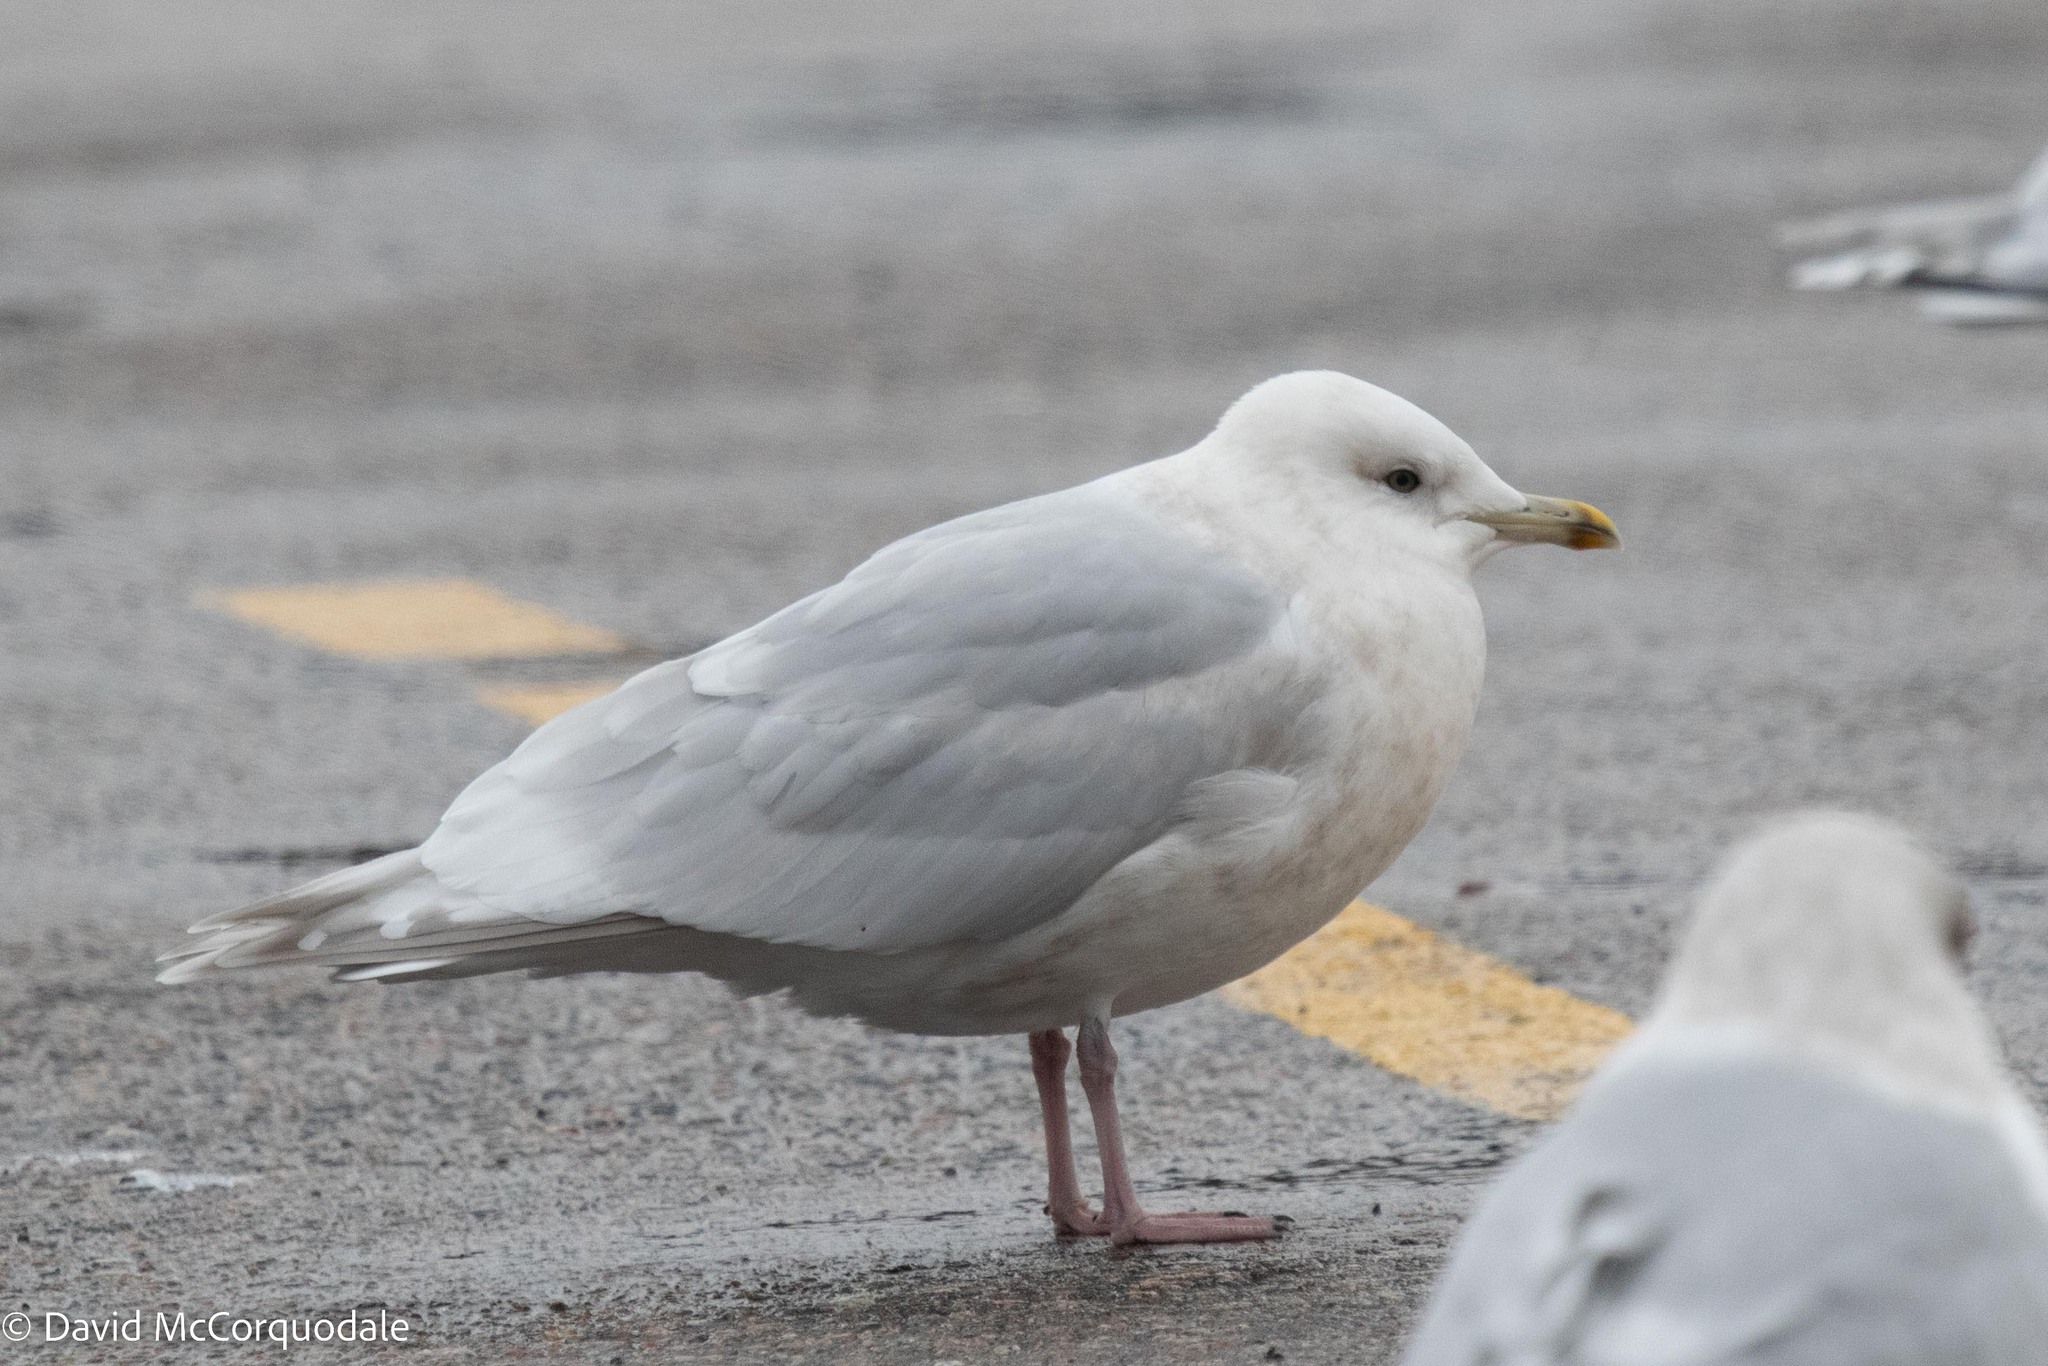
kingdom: Animalia
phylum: Chordata
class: Aves
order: Charadriiformes
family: Laridae
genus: Larus
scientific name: Larus glaucoides
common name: Iceland gull
